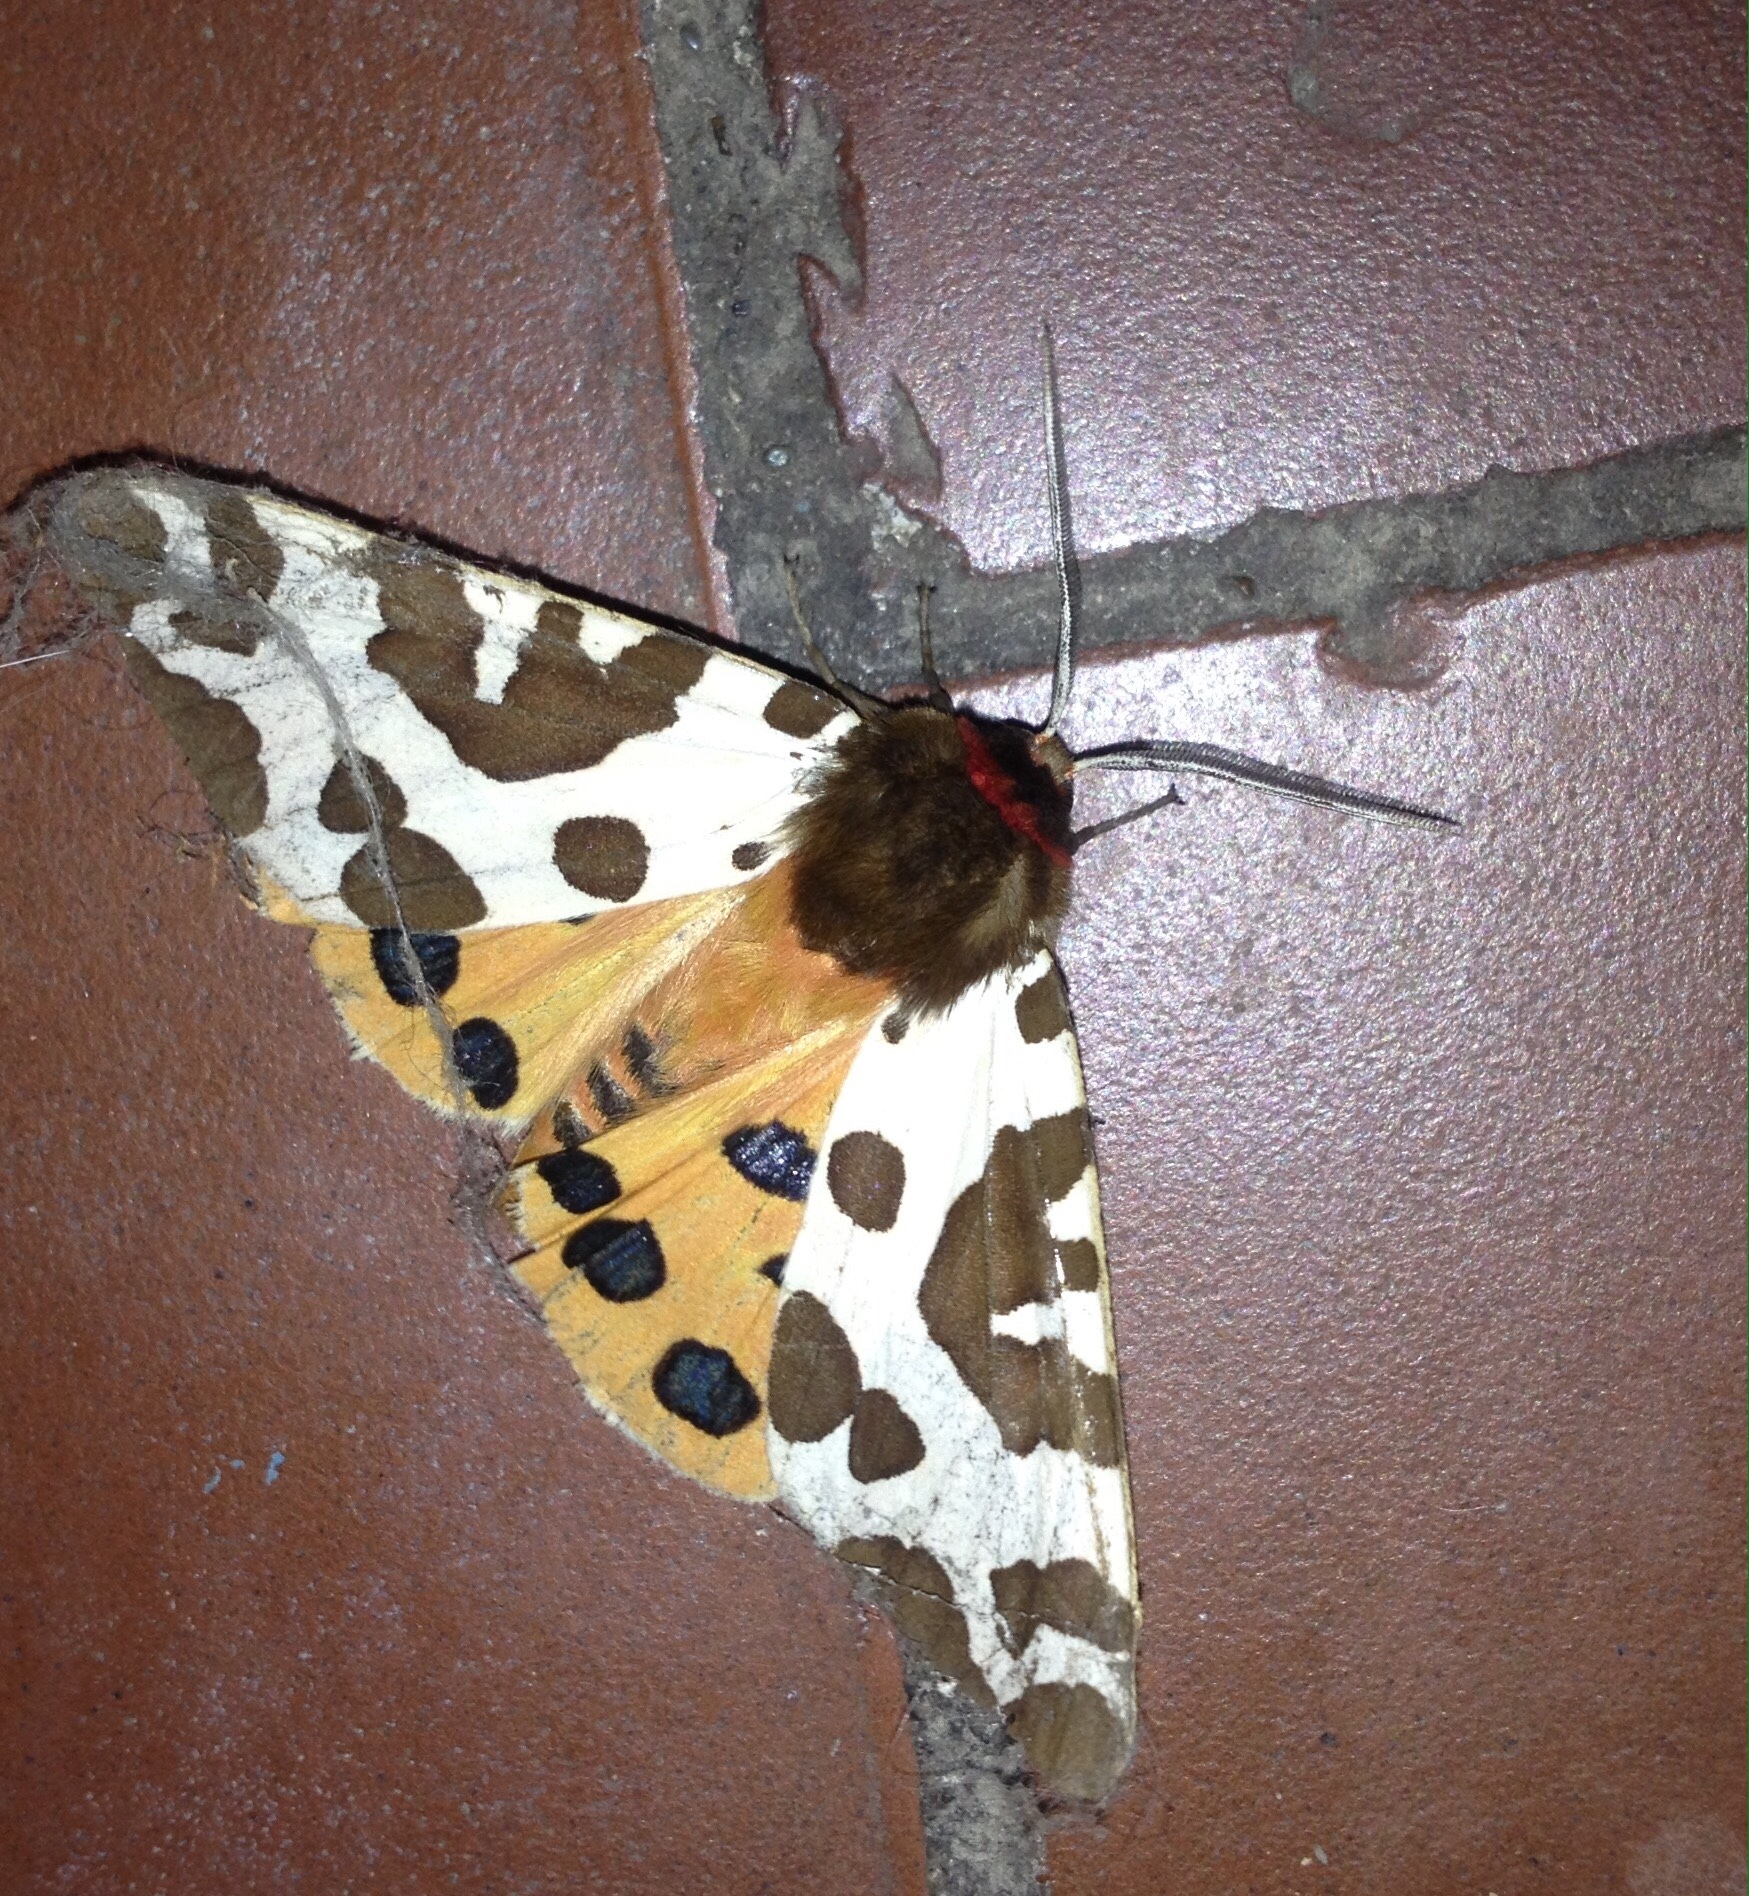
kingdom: Animalia
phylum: Arthropoda
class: Insecta
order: Lepidoptera
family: Erebidae
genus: Arctia
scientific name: Arctia caja
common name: Garden tiger
